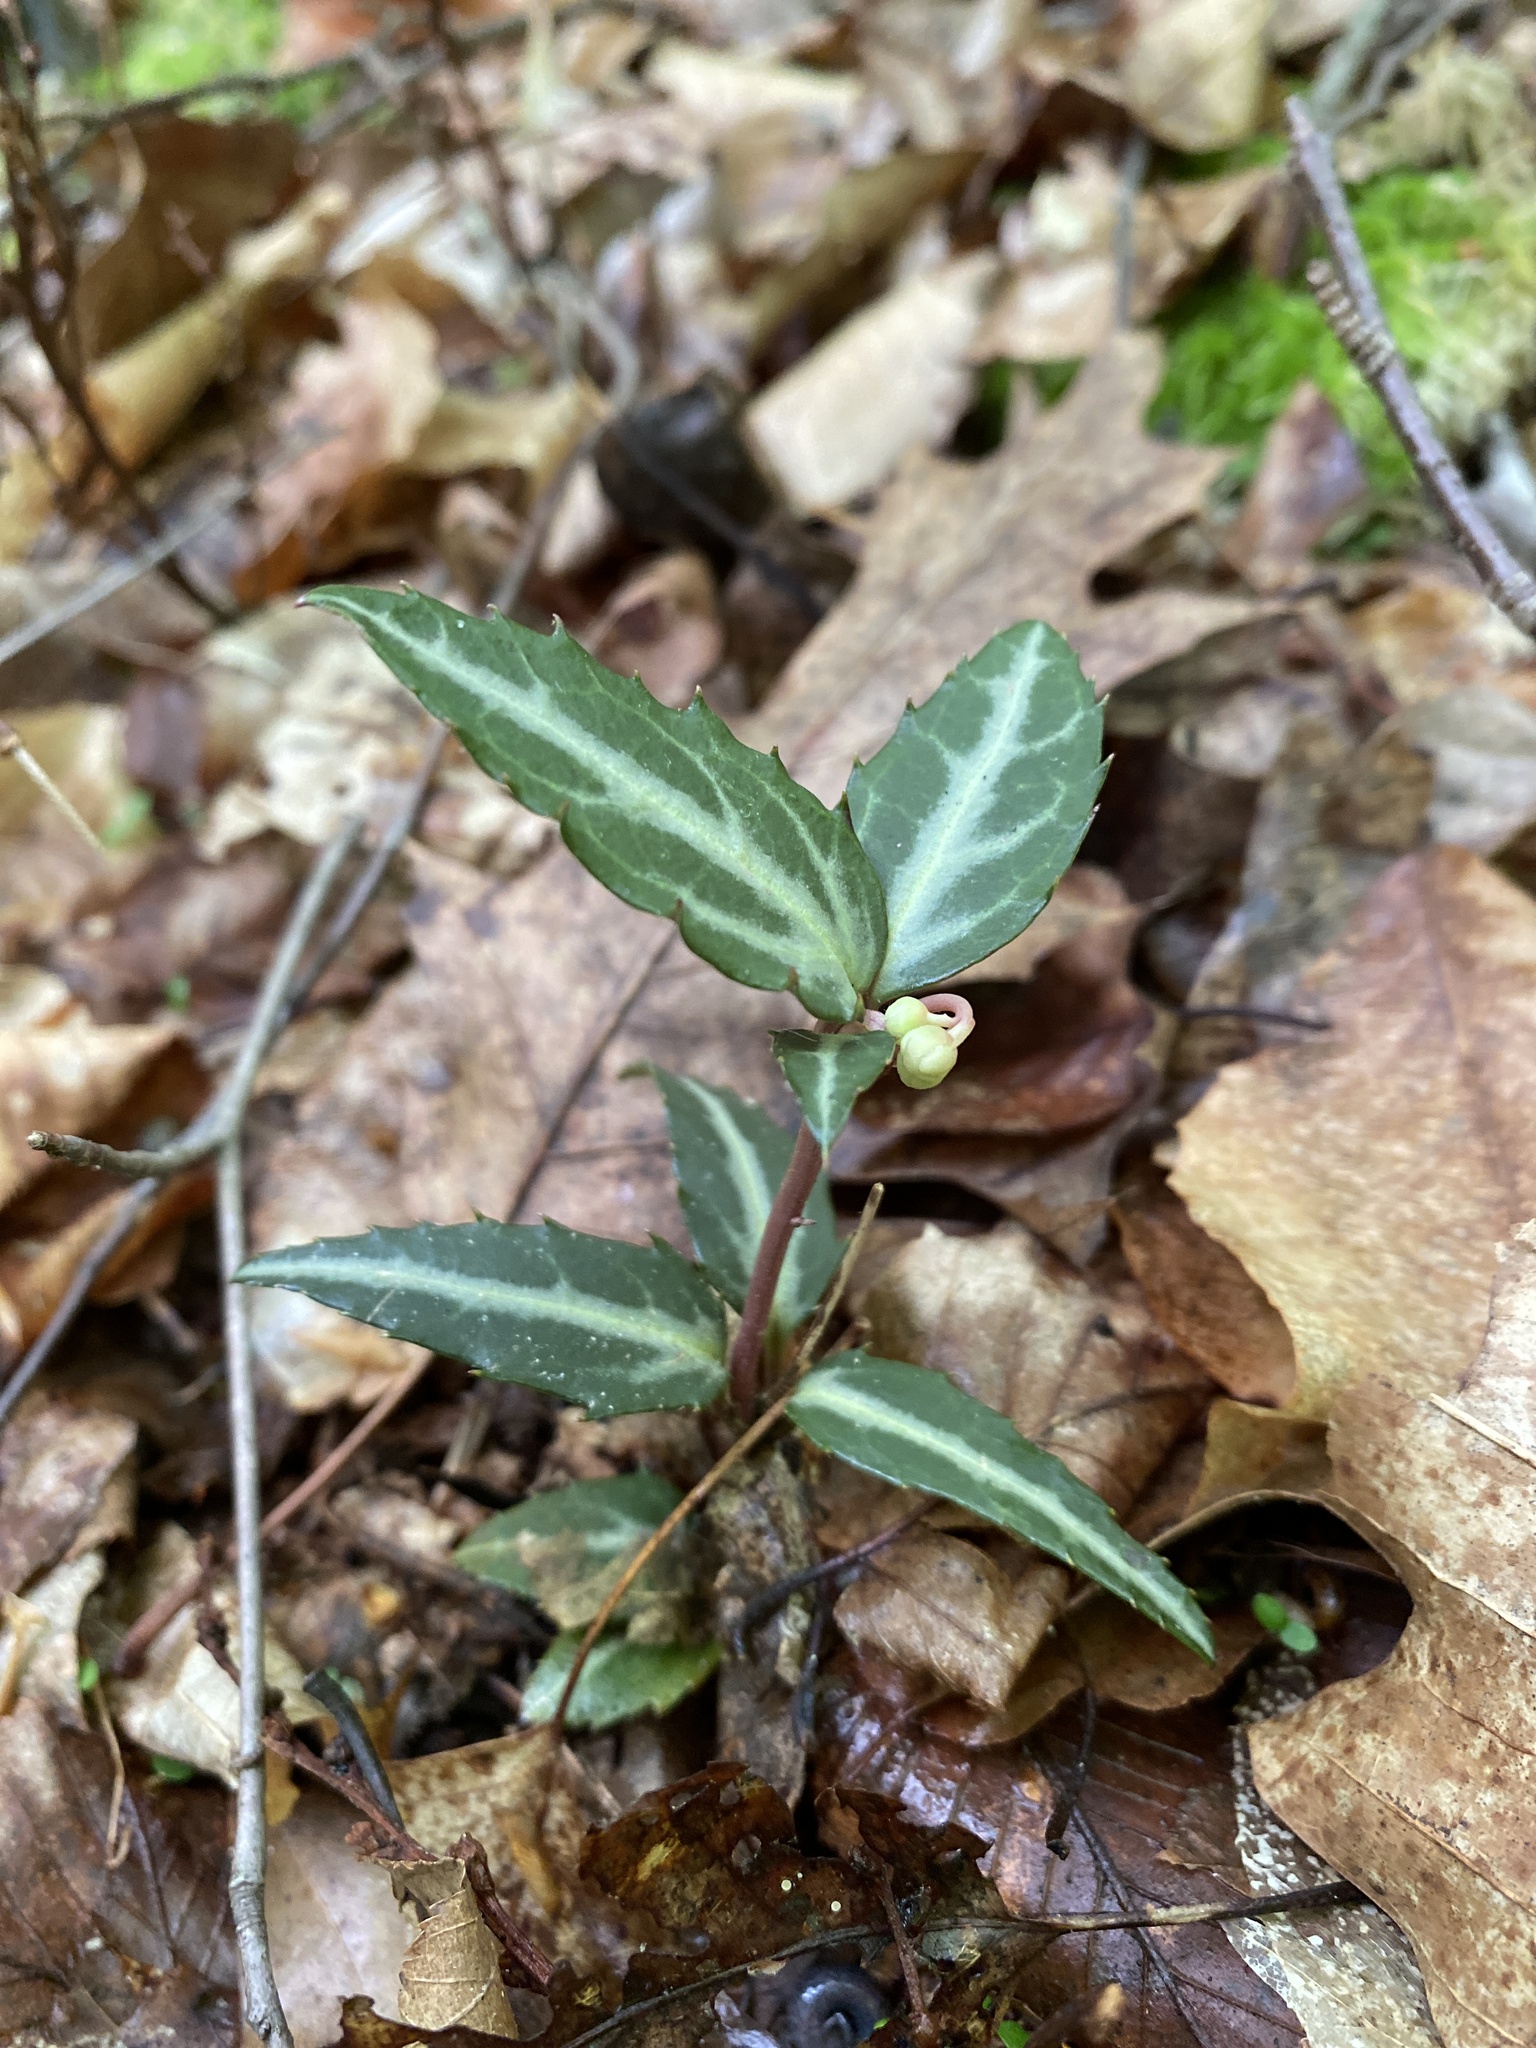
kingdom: Plantae
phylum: Tracheophyta
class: Magnoliopsida
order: Ericales
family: Ericaceae
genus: Chimaphila
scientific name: Chimaphila maculata
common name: Spotted pipsissewa
